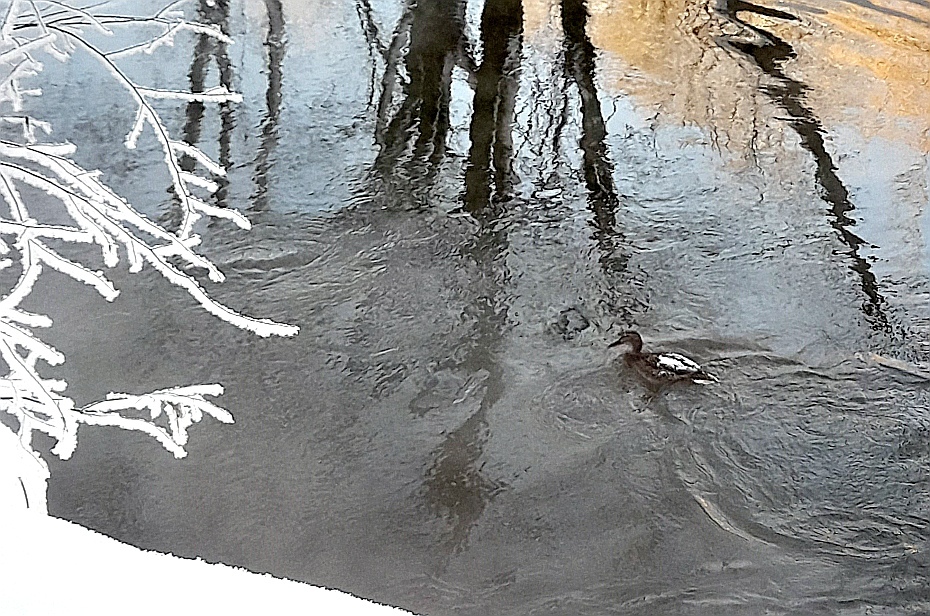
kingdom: Animalia
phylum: Chordata
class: Aves
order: Anseriformes
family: Anatidae
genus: Anas
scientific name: Anas platyrhynchos
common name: Mallard
